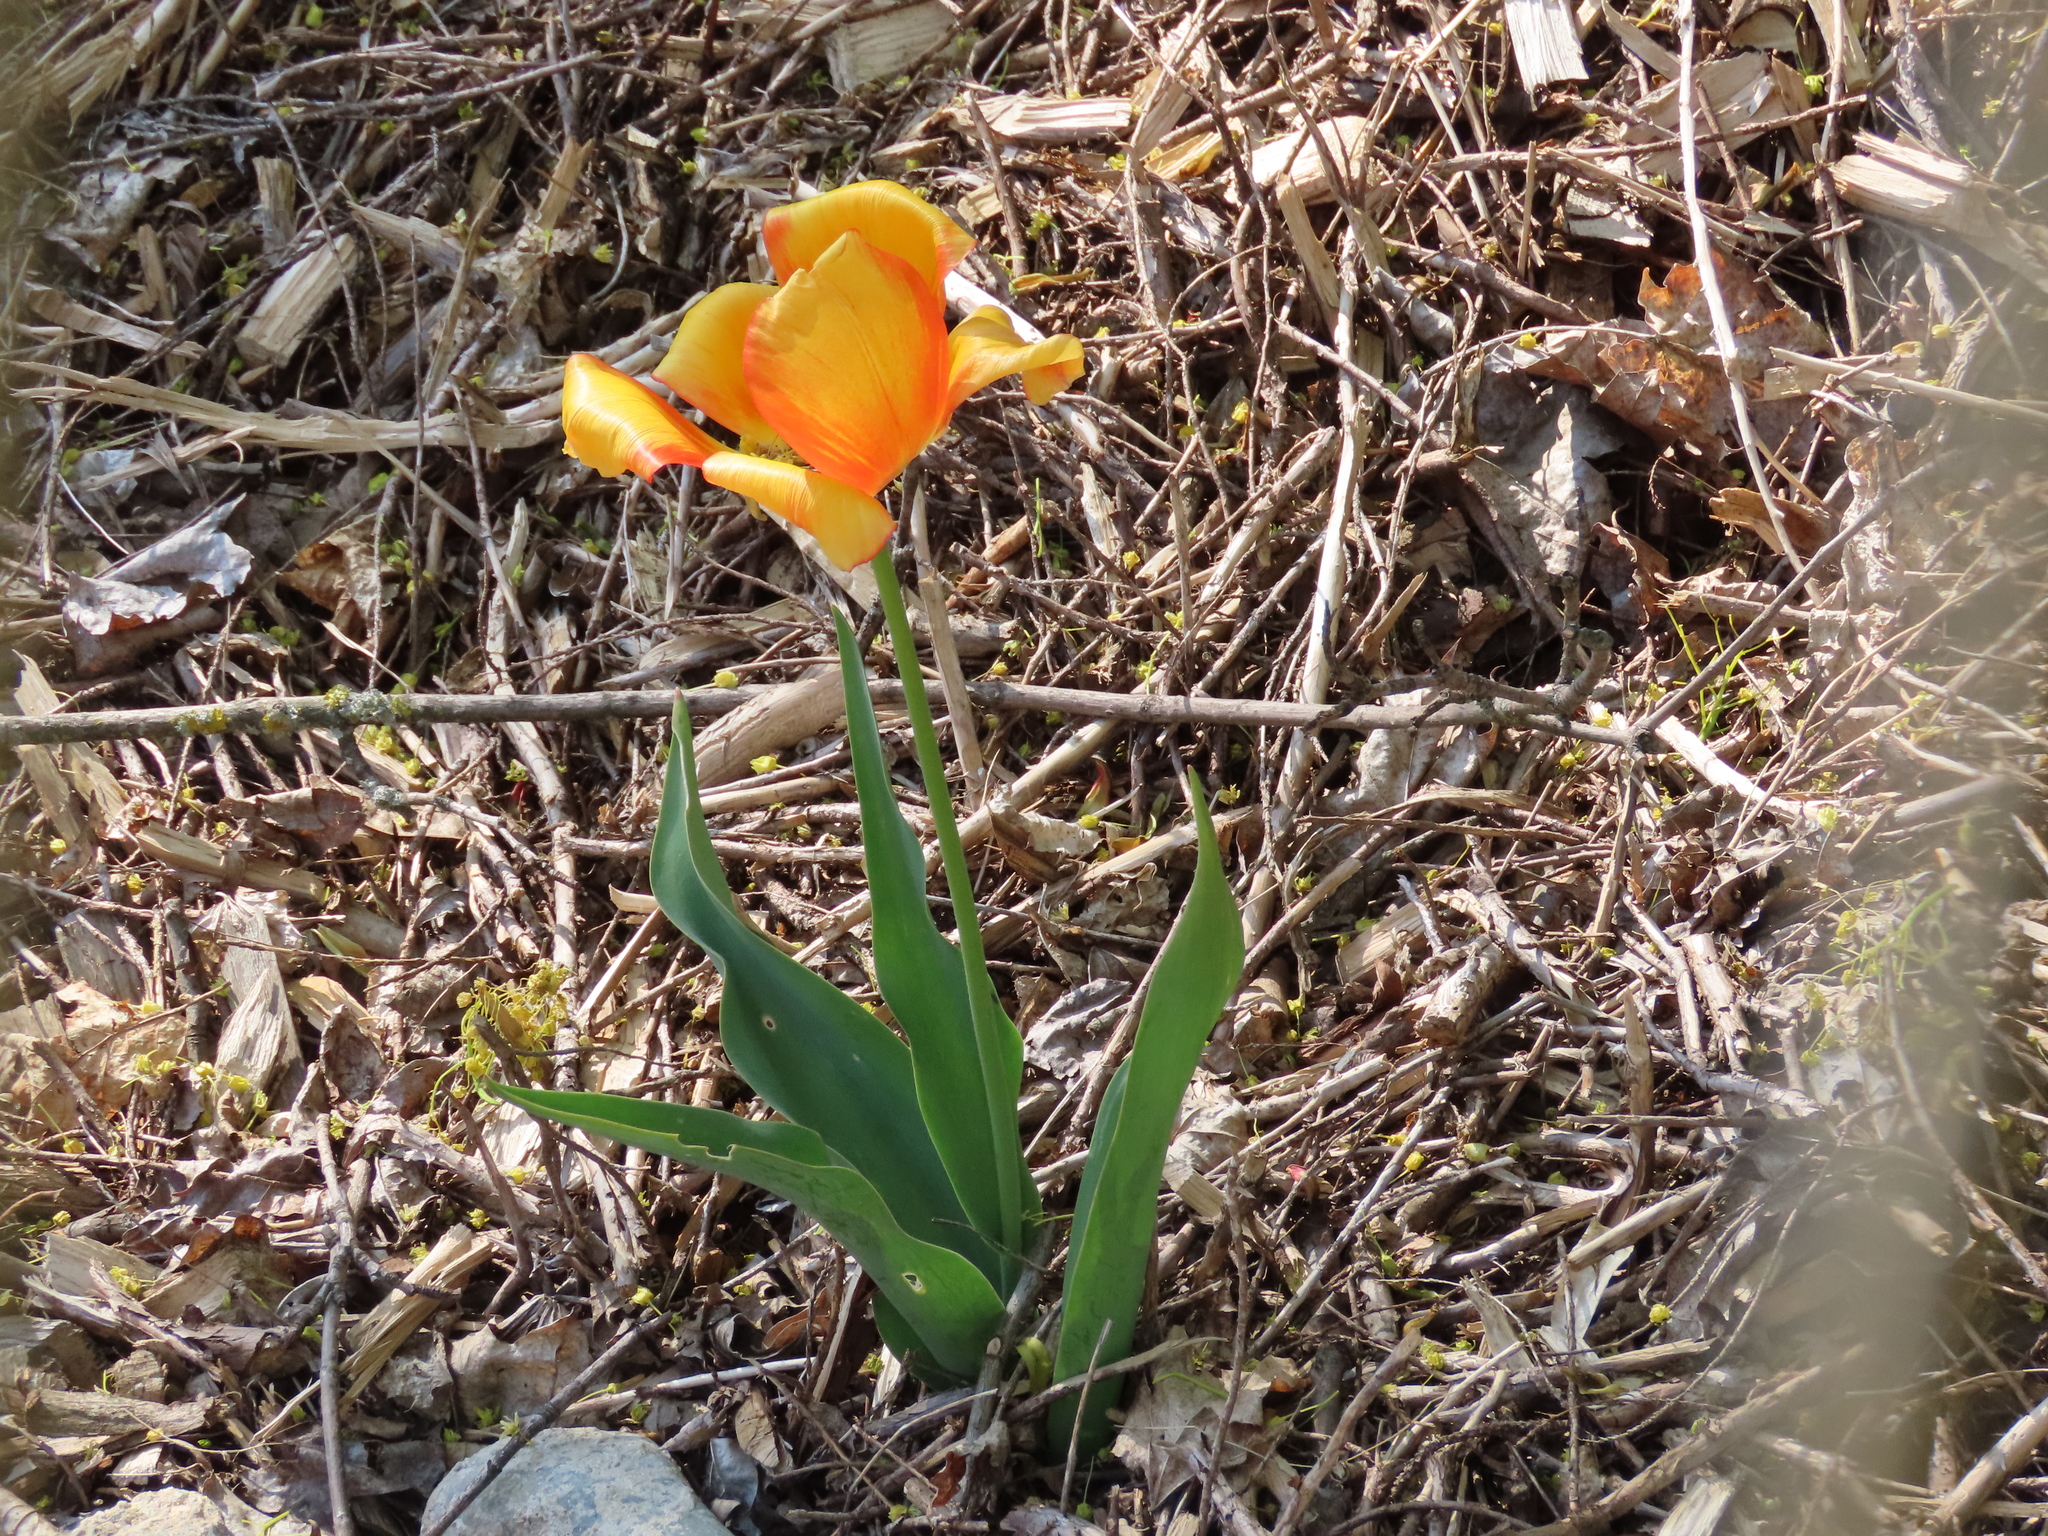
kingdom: Plantae
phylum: Tracheophyta
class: Liliopsida
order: Liliales
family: Liliaceae
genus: Tulipa
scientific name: Tulipa gesneriana
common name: Garden tulip
